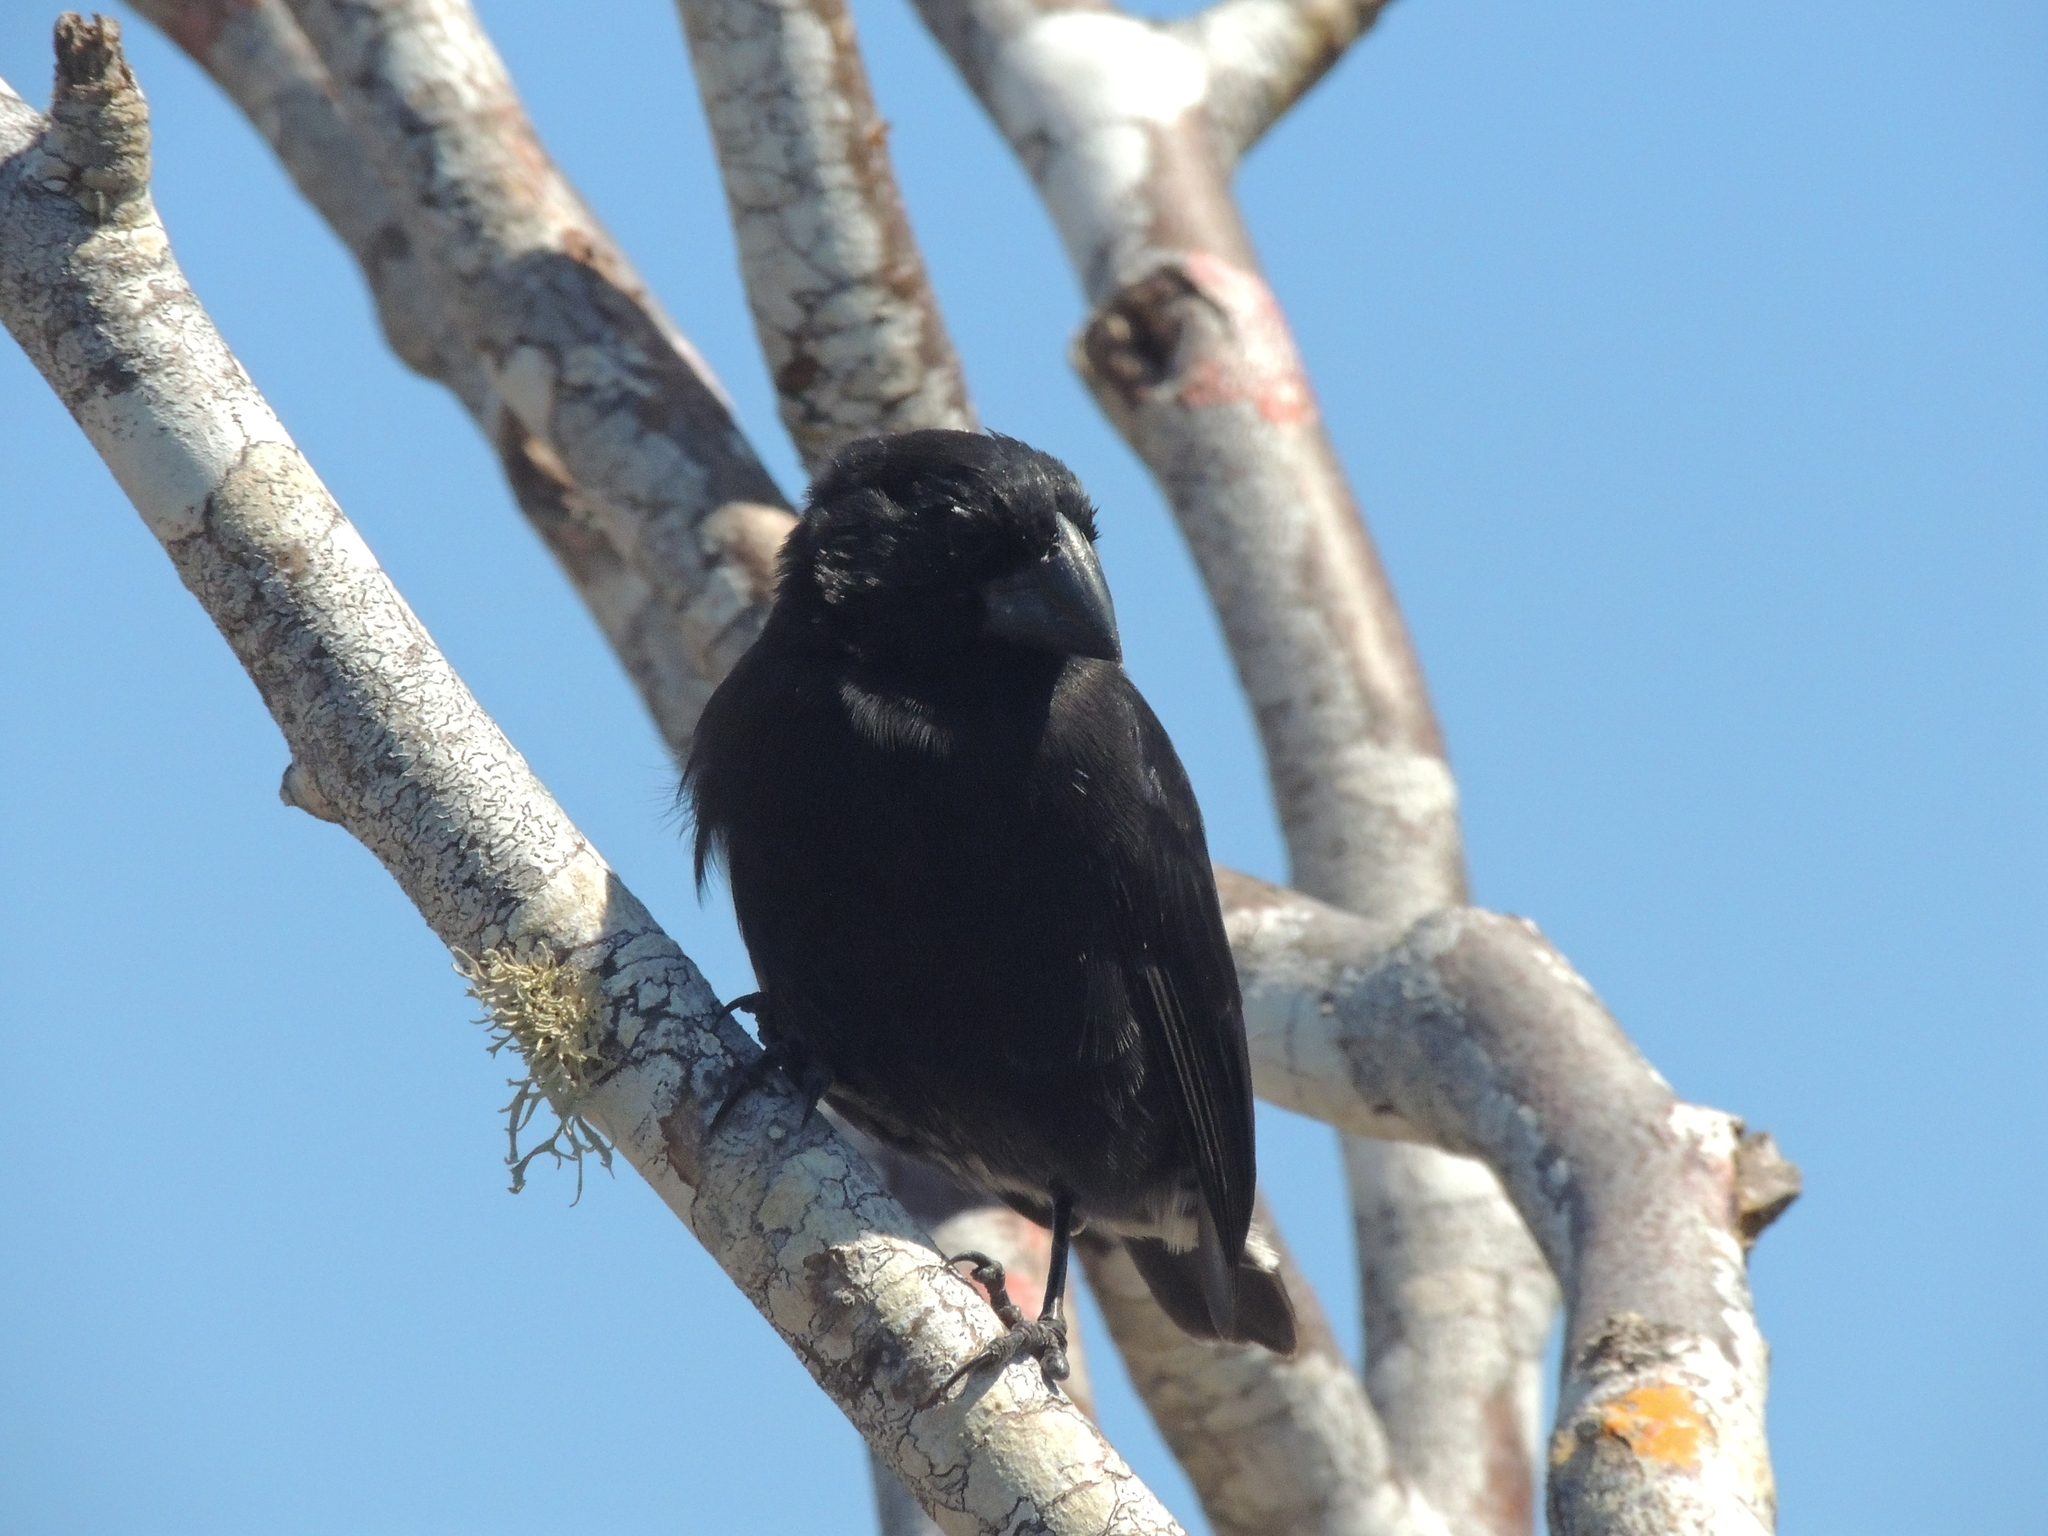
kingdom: Animalia
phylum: Chordata
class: Aves
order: Passeriformes
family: Thraupidae
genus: Geospiza
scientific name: Geospiza fortis
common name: Medium ground finch
